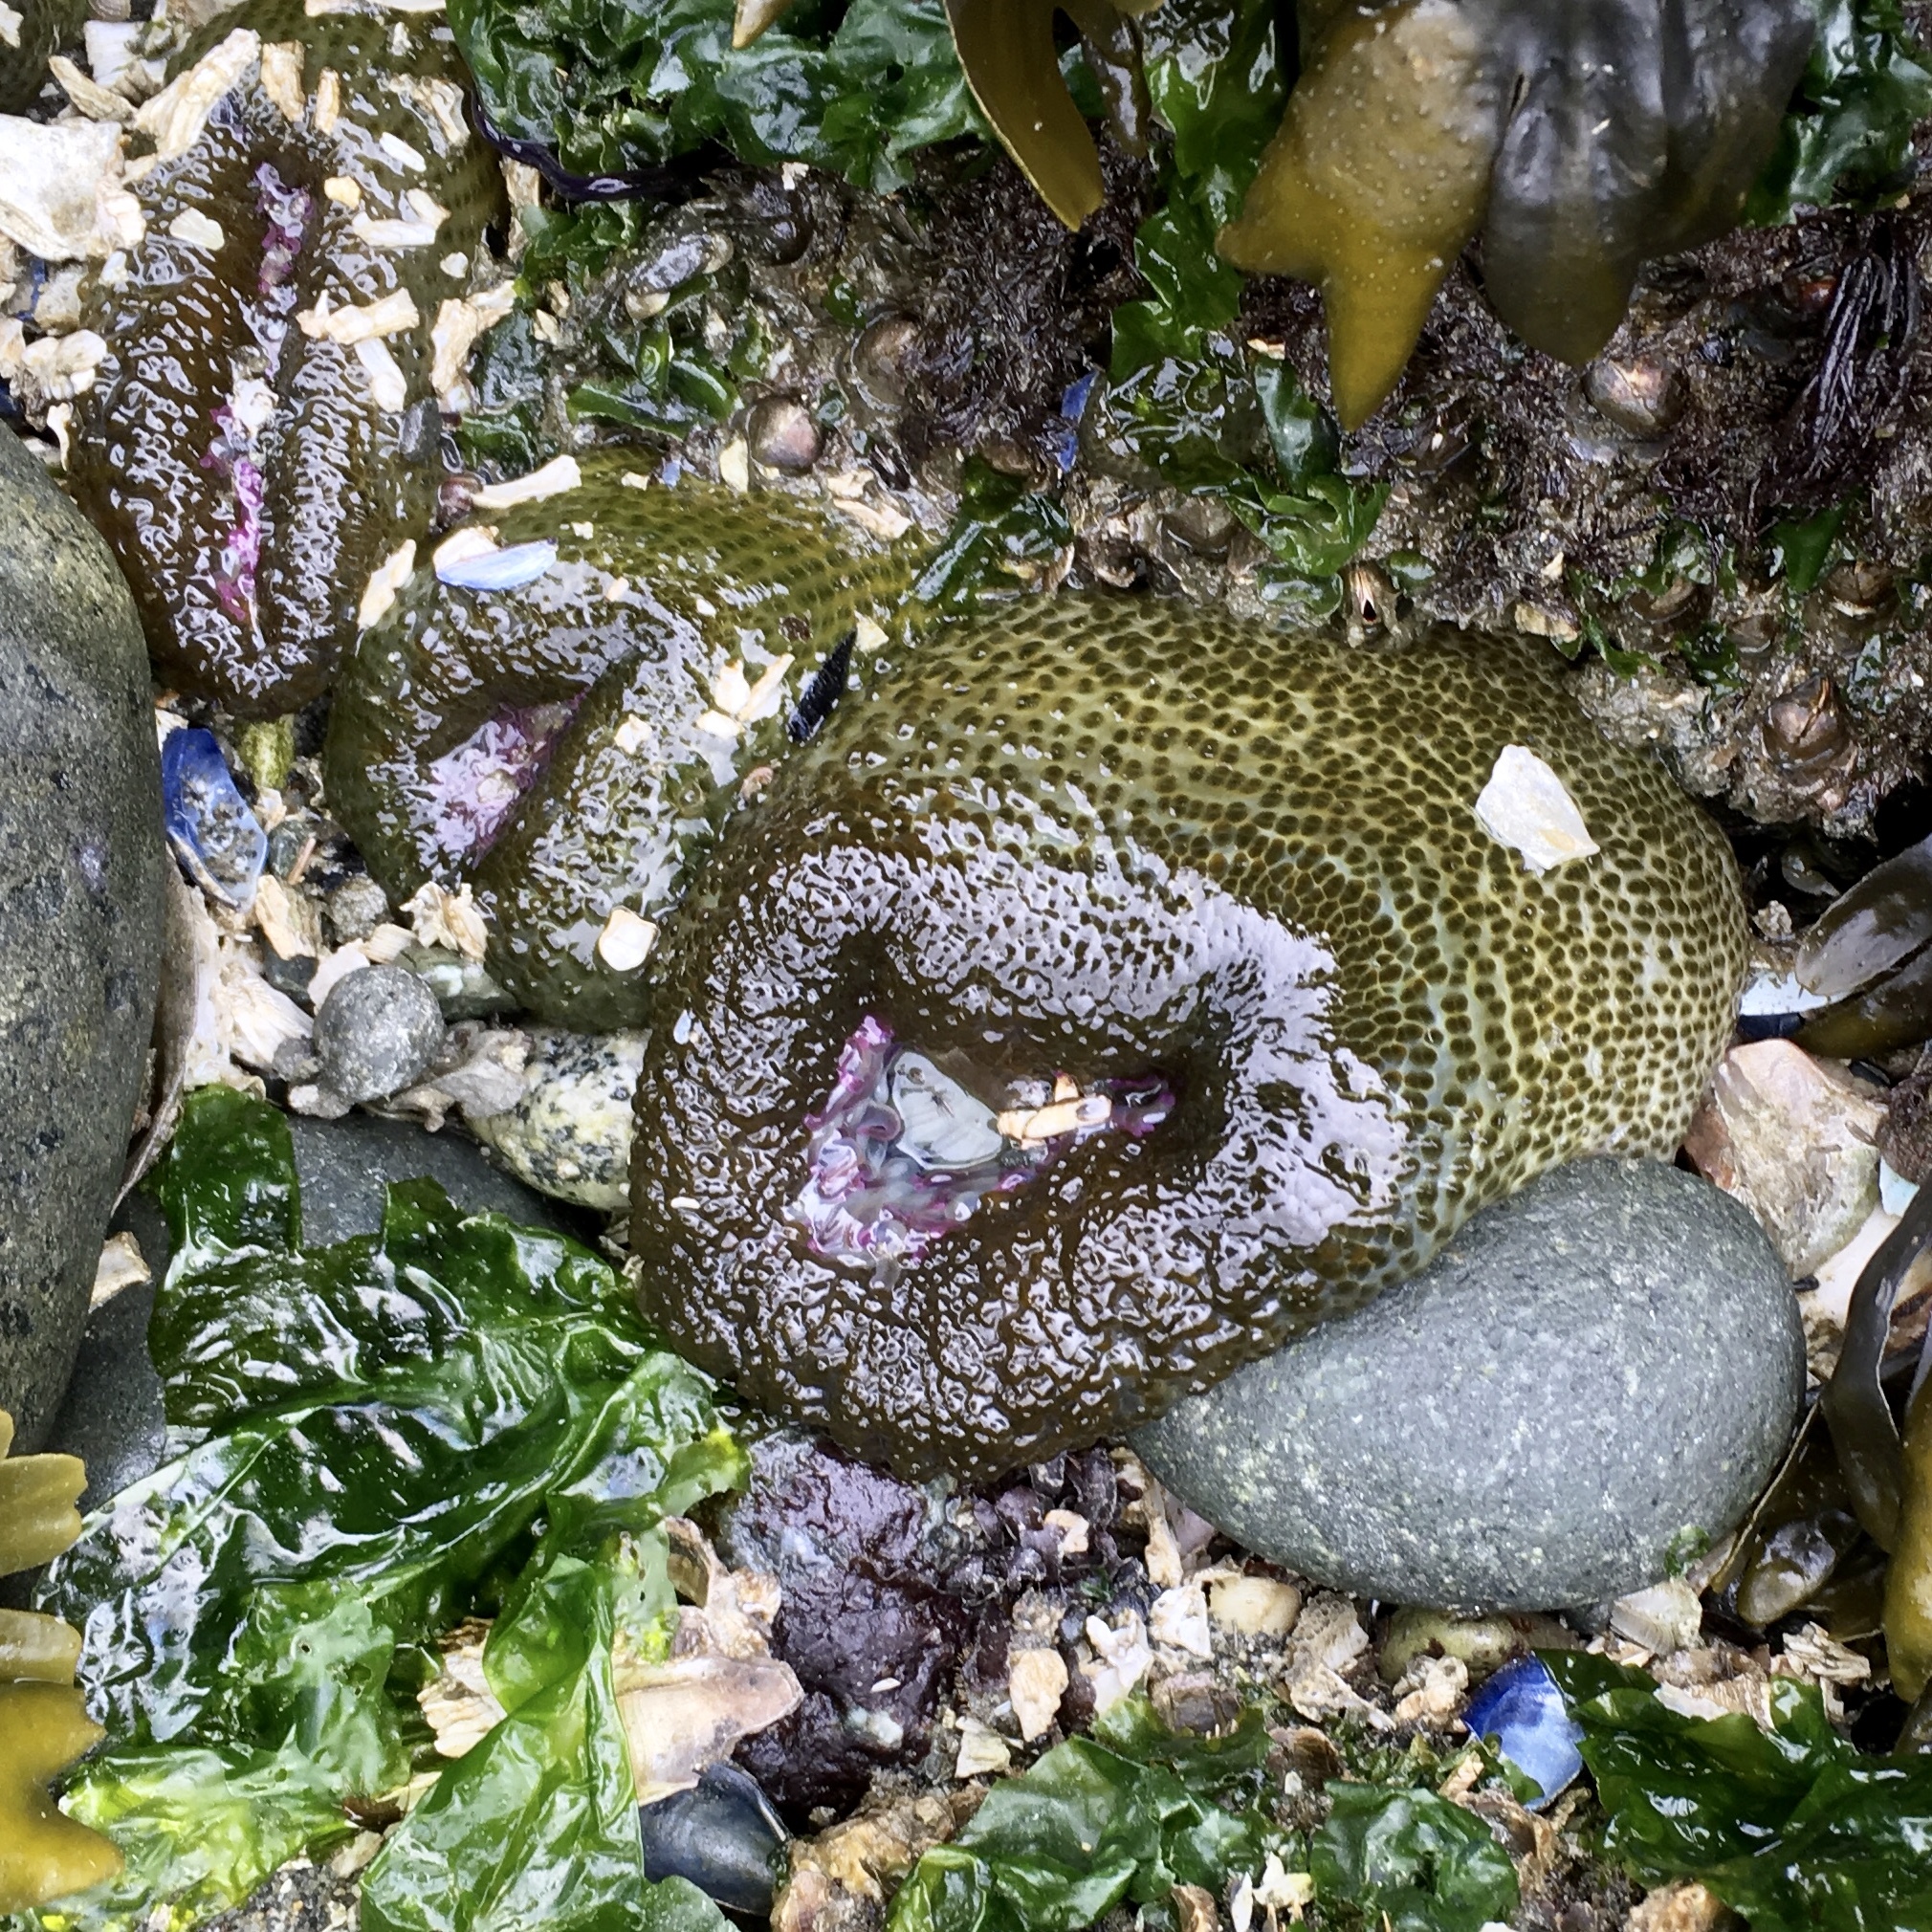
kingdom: Animalia
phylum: Cnidaria
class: Anthozoa
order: Actiniaria
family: Actiniidae
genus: Anthopleura
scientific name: Anthopleura elegantissima
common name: Clonal anemone
